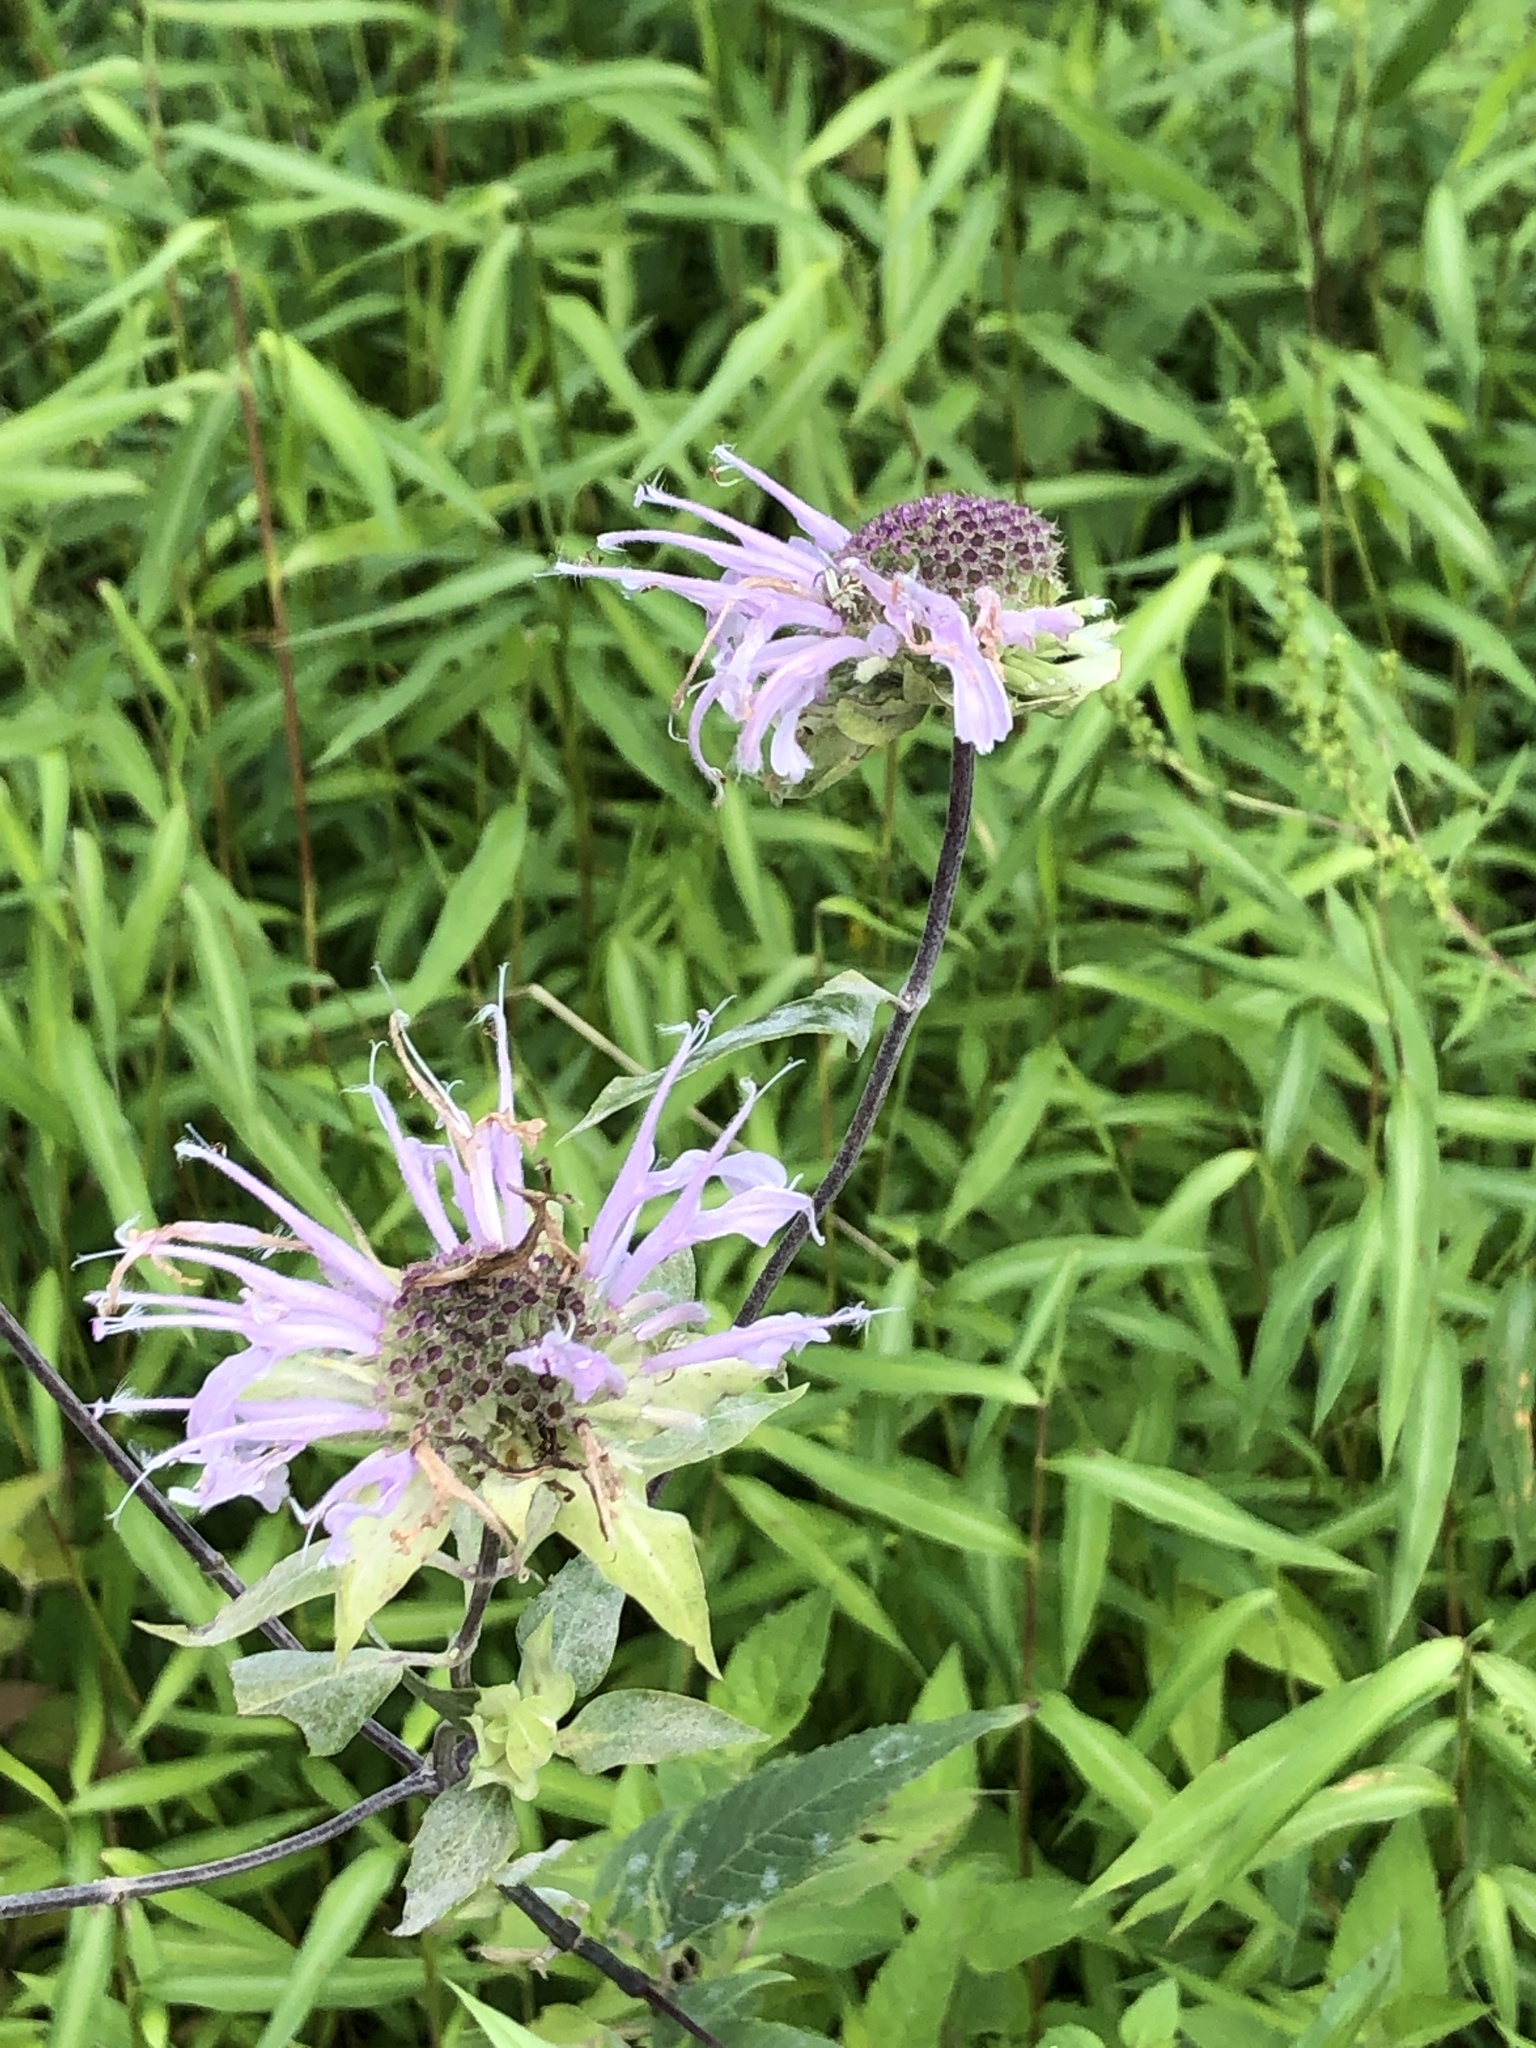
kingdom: Plantae
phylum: Tracheophyta
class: Magnoliopsida
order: Lamiales
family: Lamiaceae
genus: Monarda
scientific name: Monarda fistulosa
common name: Purple beebalm
